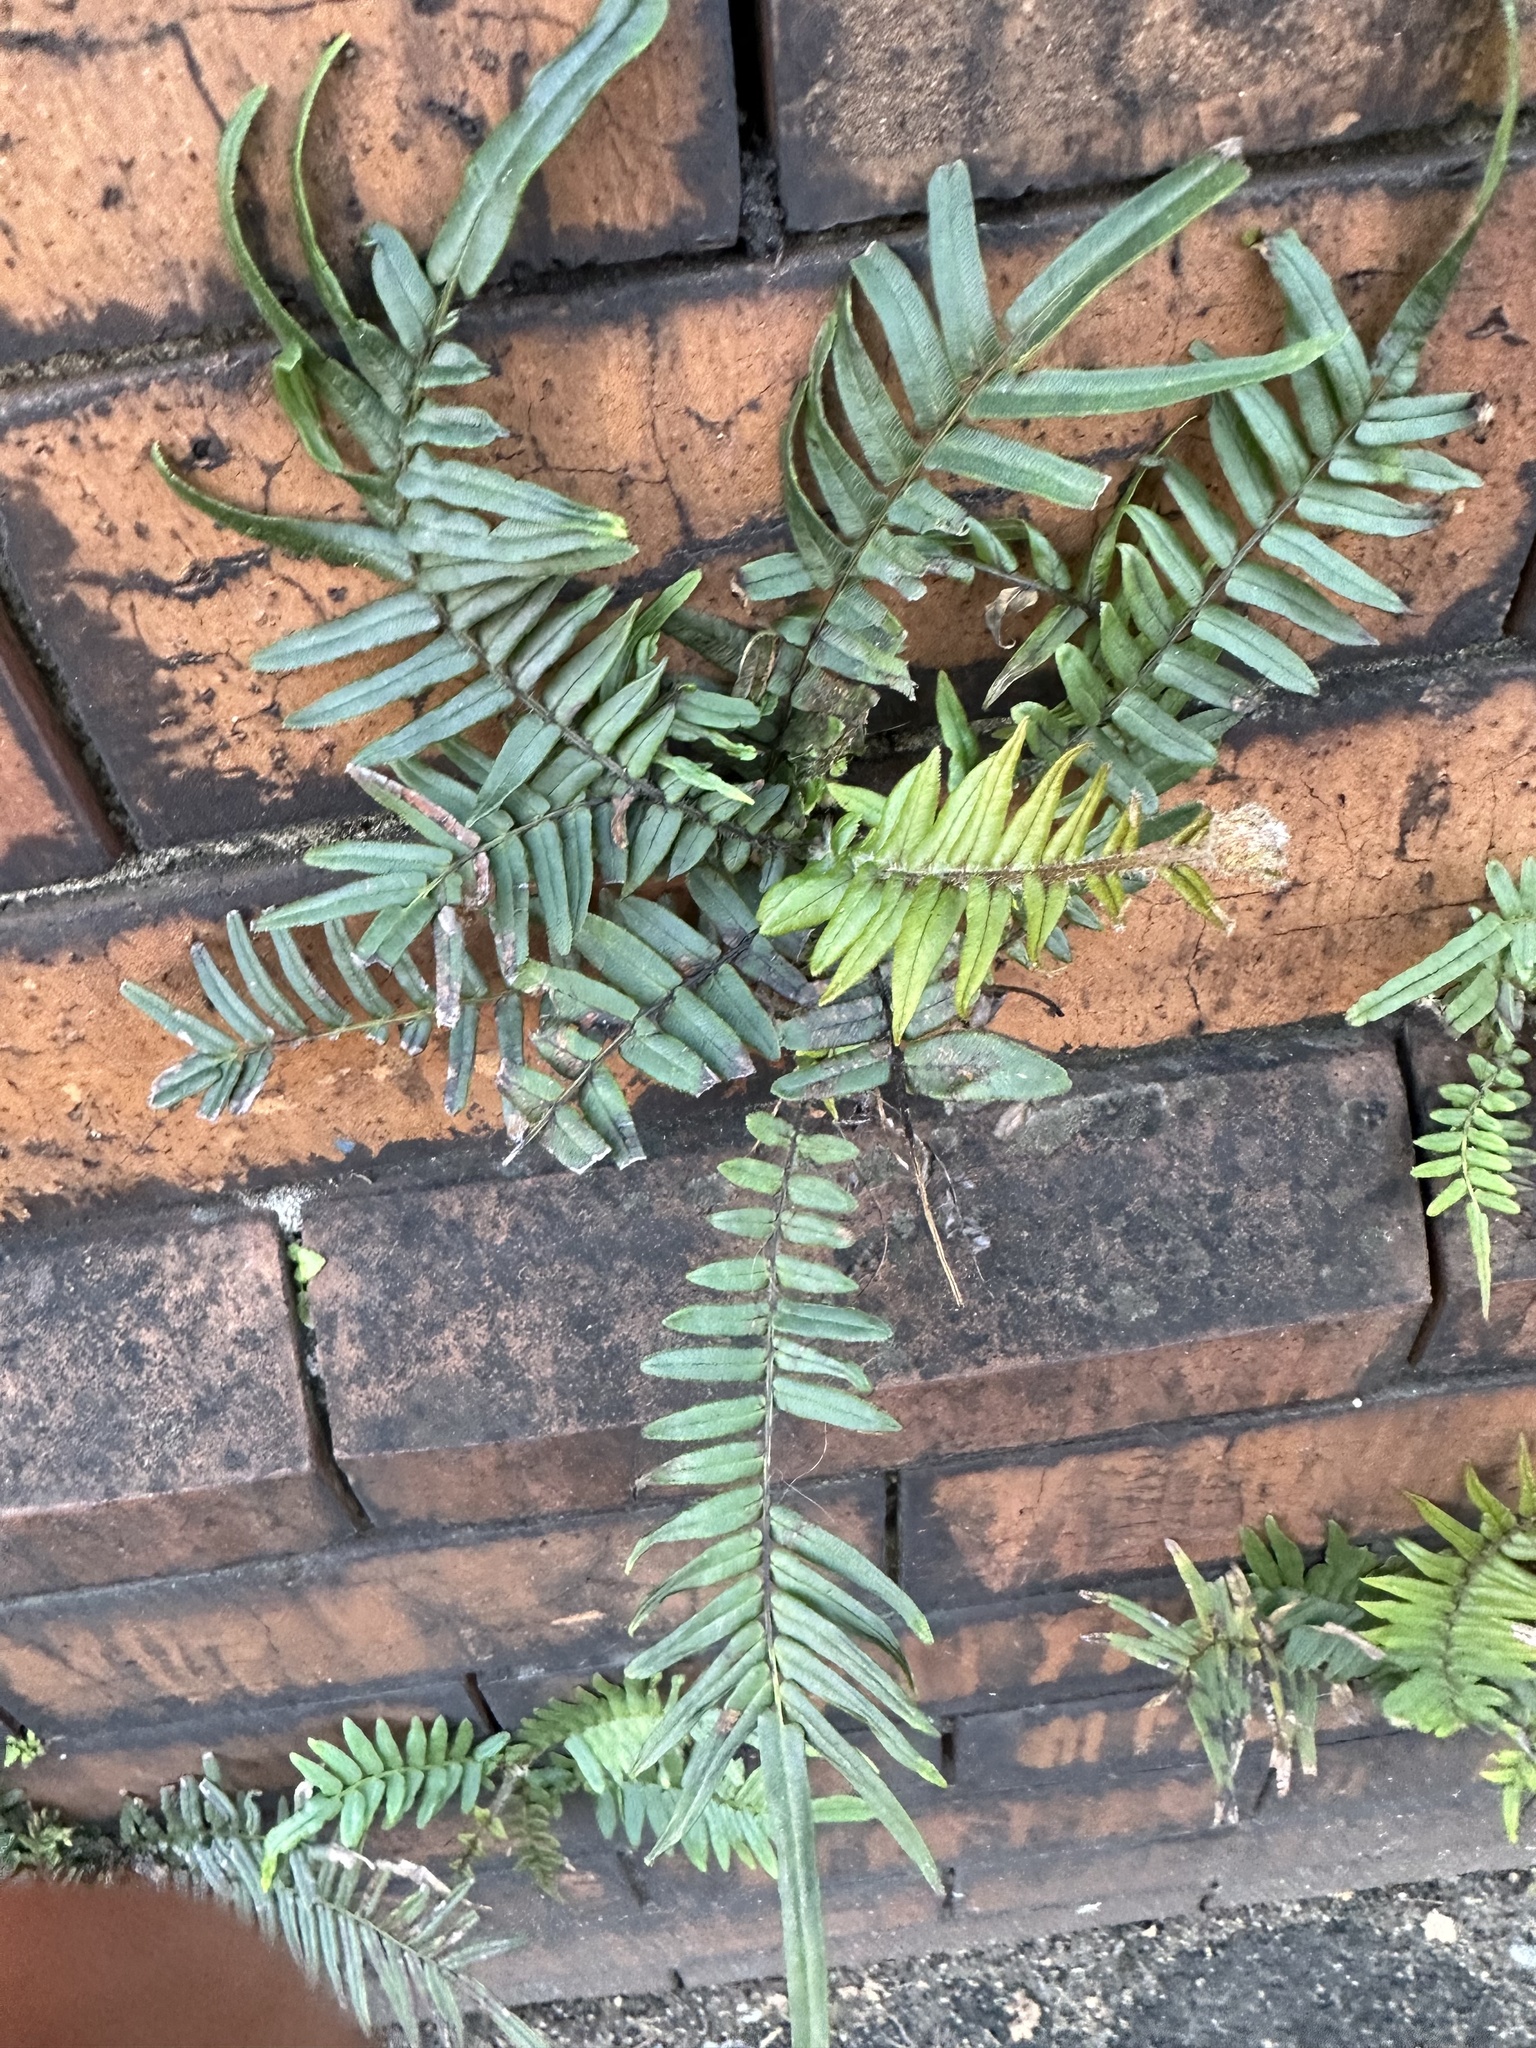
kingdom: Plantae
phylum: Tracheophyta
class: Polypodiopsida
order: Polypodiales
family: Pteridaceae
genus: Pteris
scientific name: Pteris vittata
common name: Ladder brake
